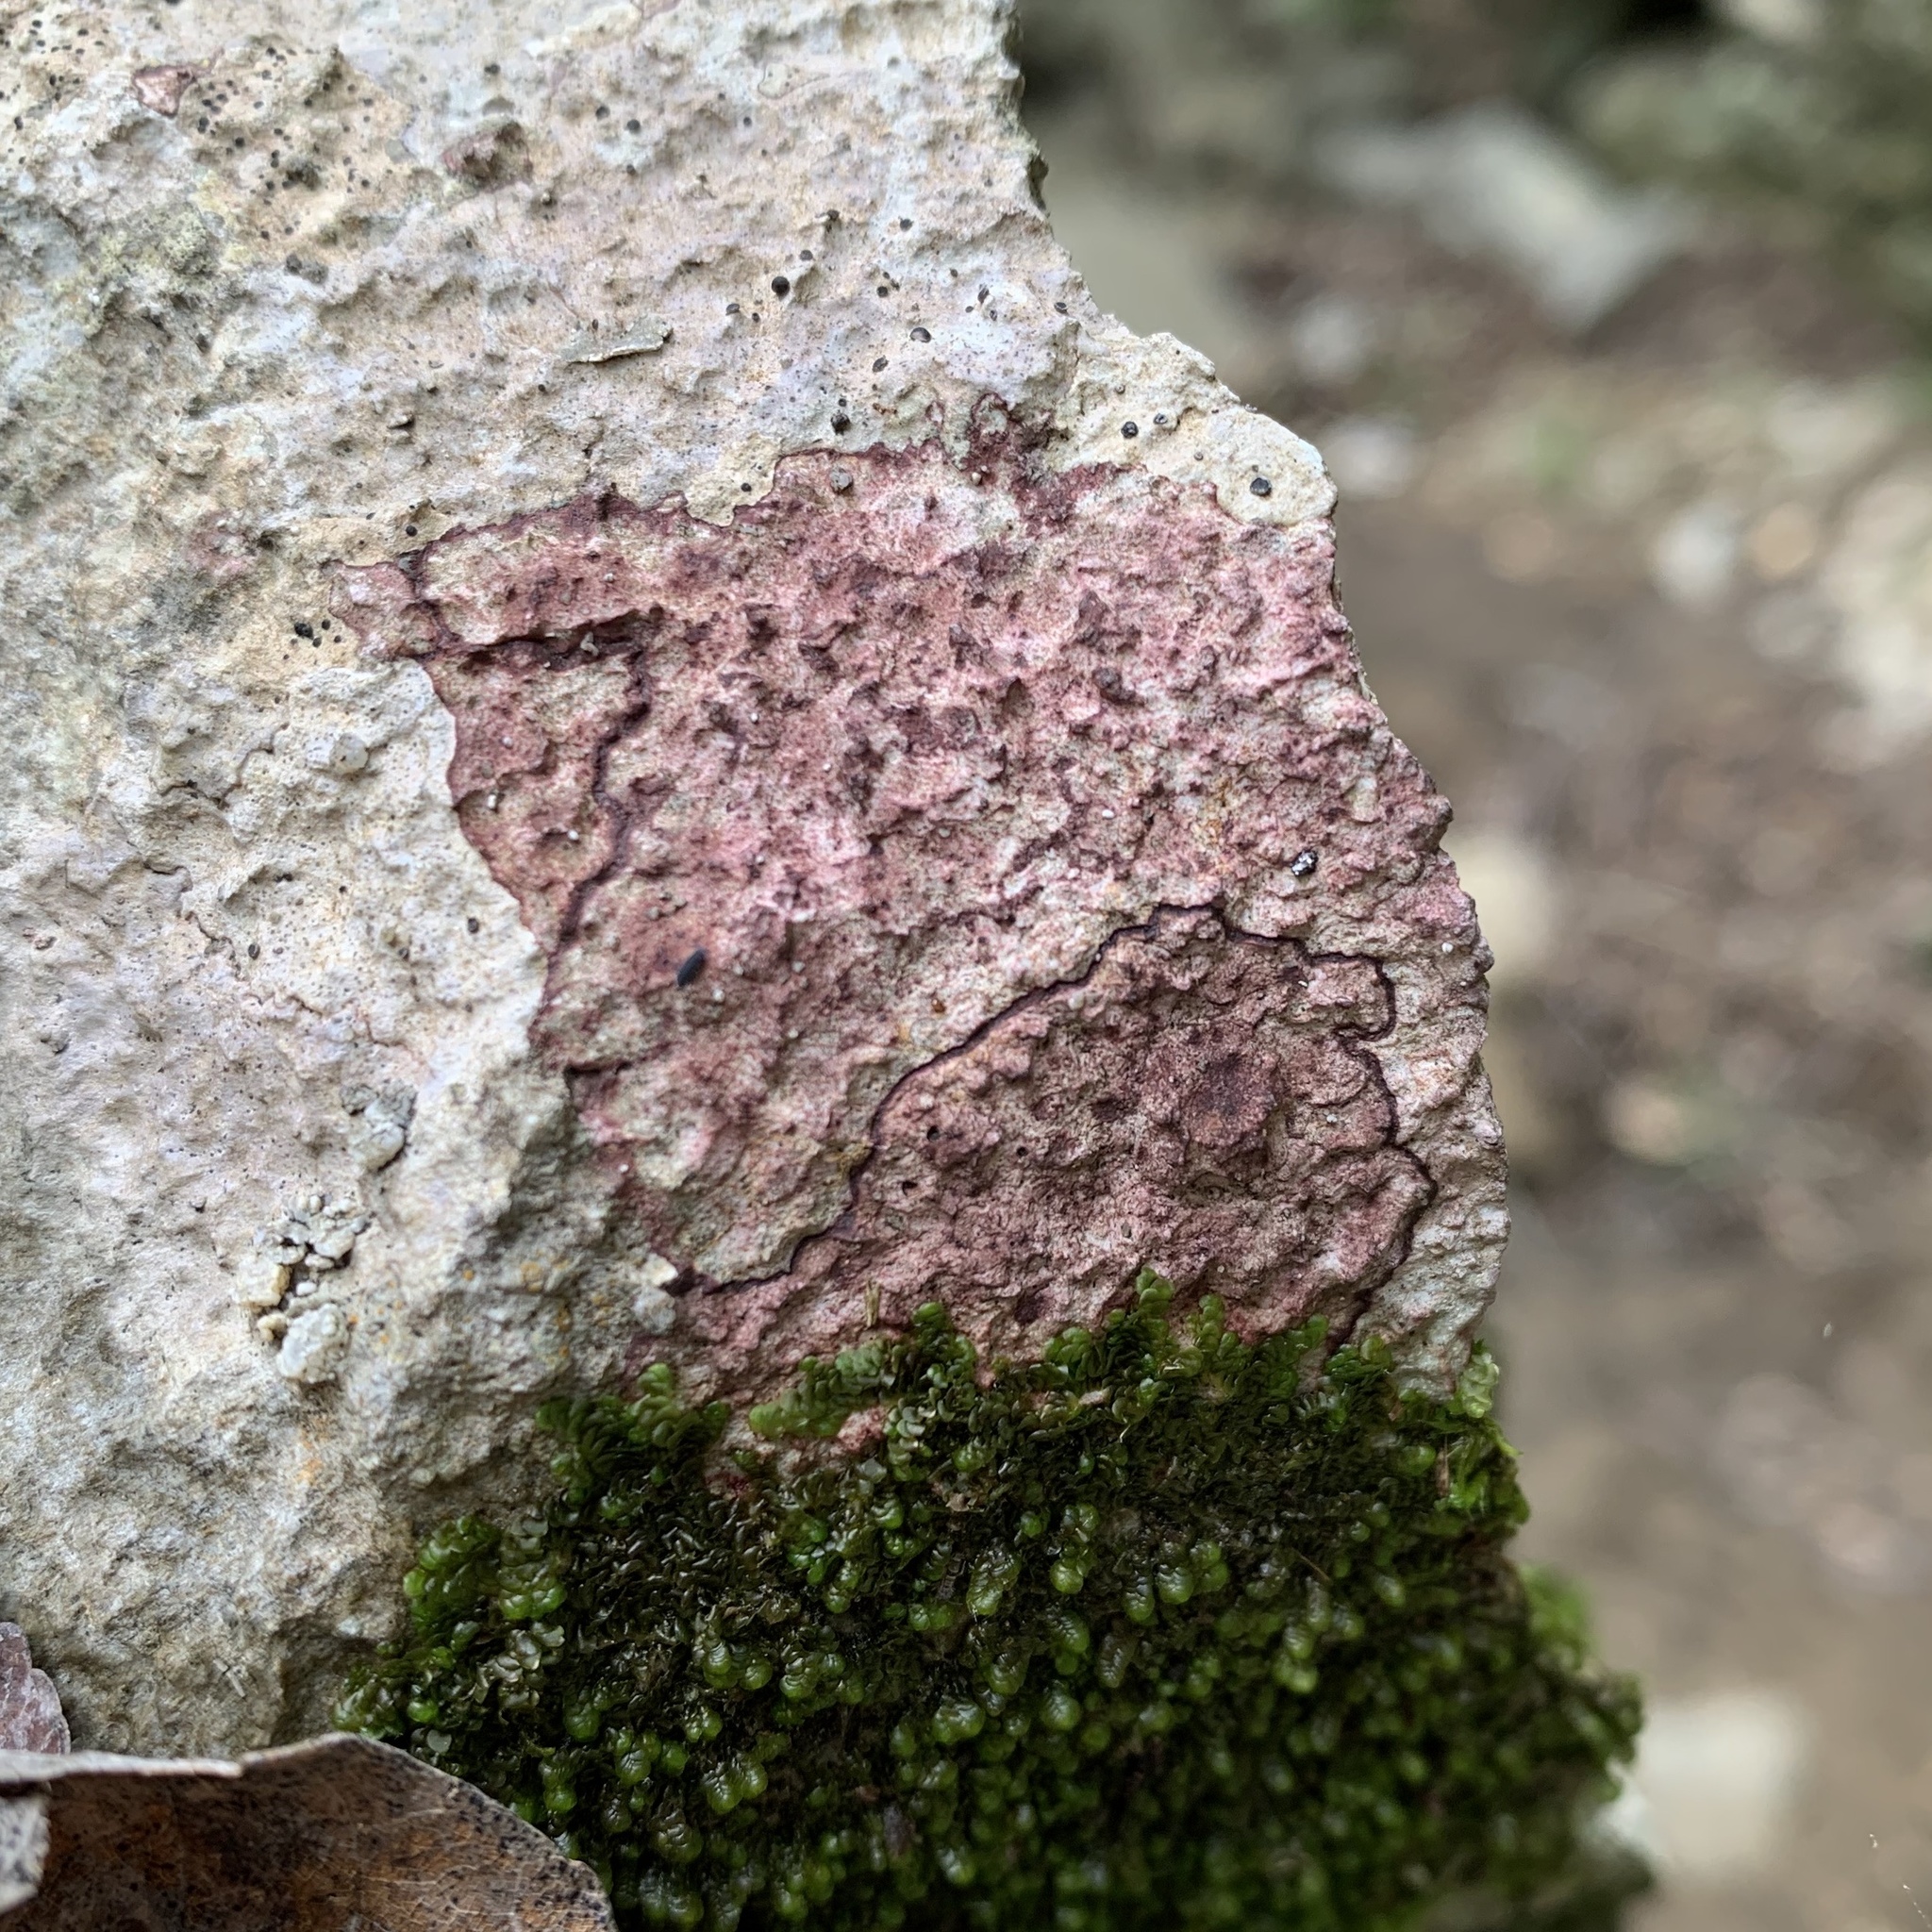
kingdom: Fungi
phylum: Ascomycota
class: Eurotiomycetes
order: Verrucariales
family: Verrucariaceae
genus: Bagliettoa
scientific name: Bagliettoa marmorea
